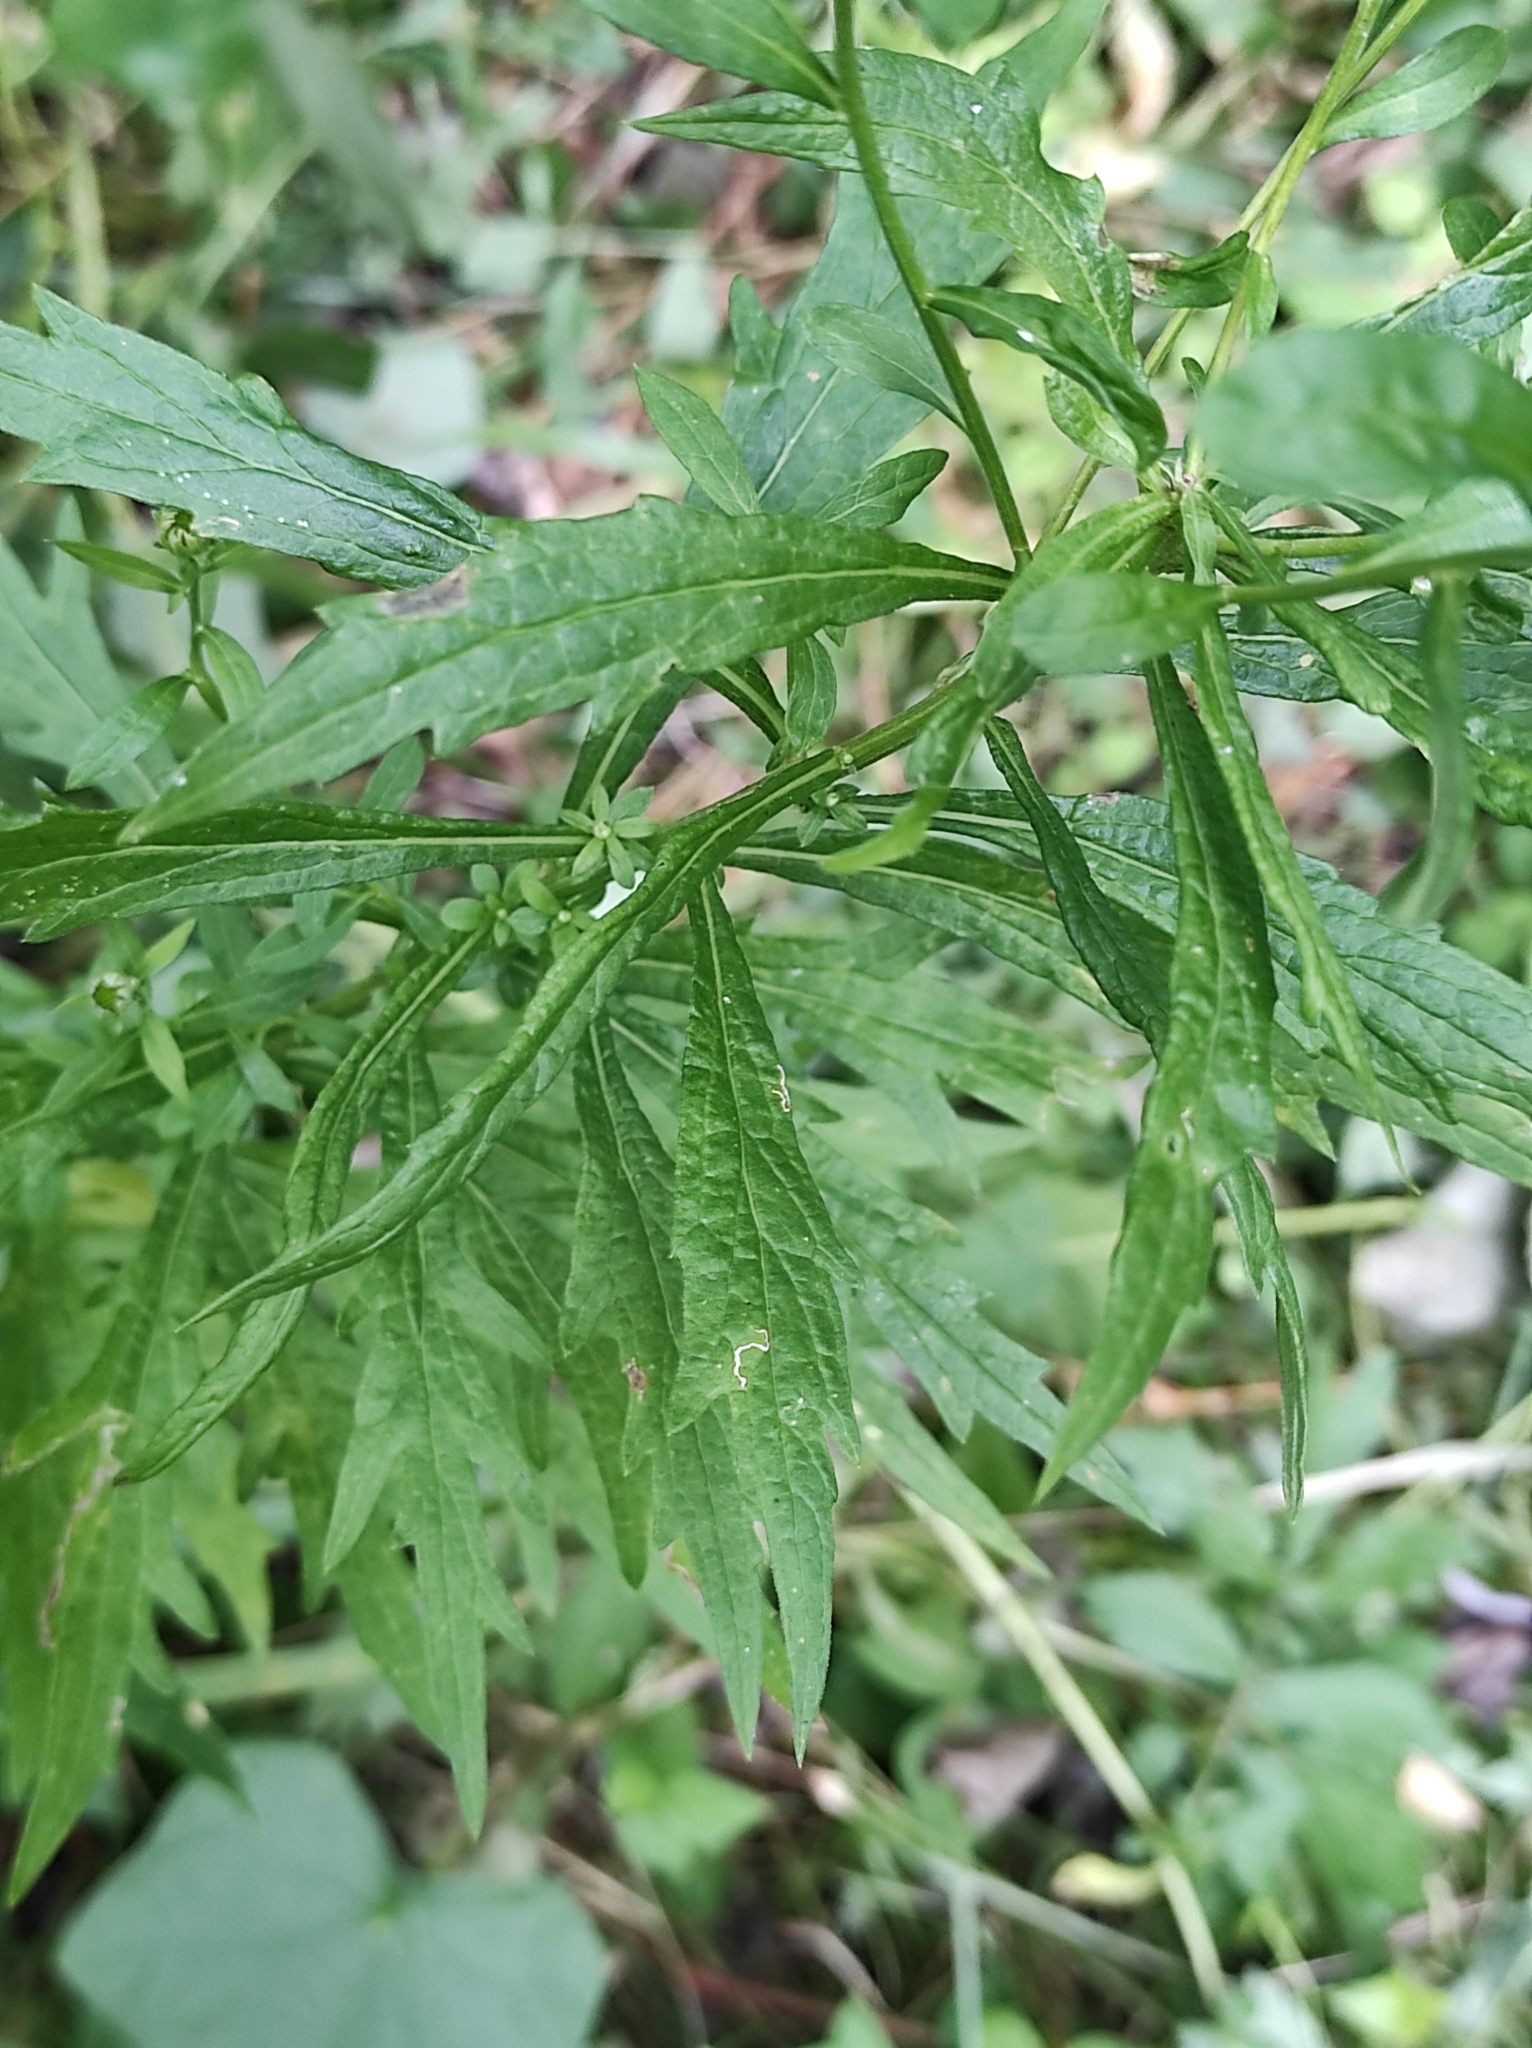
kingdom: Plantae
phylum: Tracheophyta
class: Magnoliopsida
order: Asterales
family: Asteraceae
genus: Kalimeris
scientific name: Kalimeris incisa
